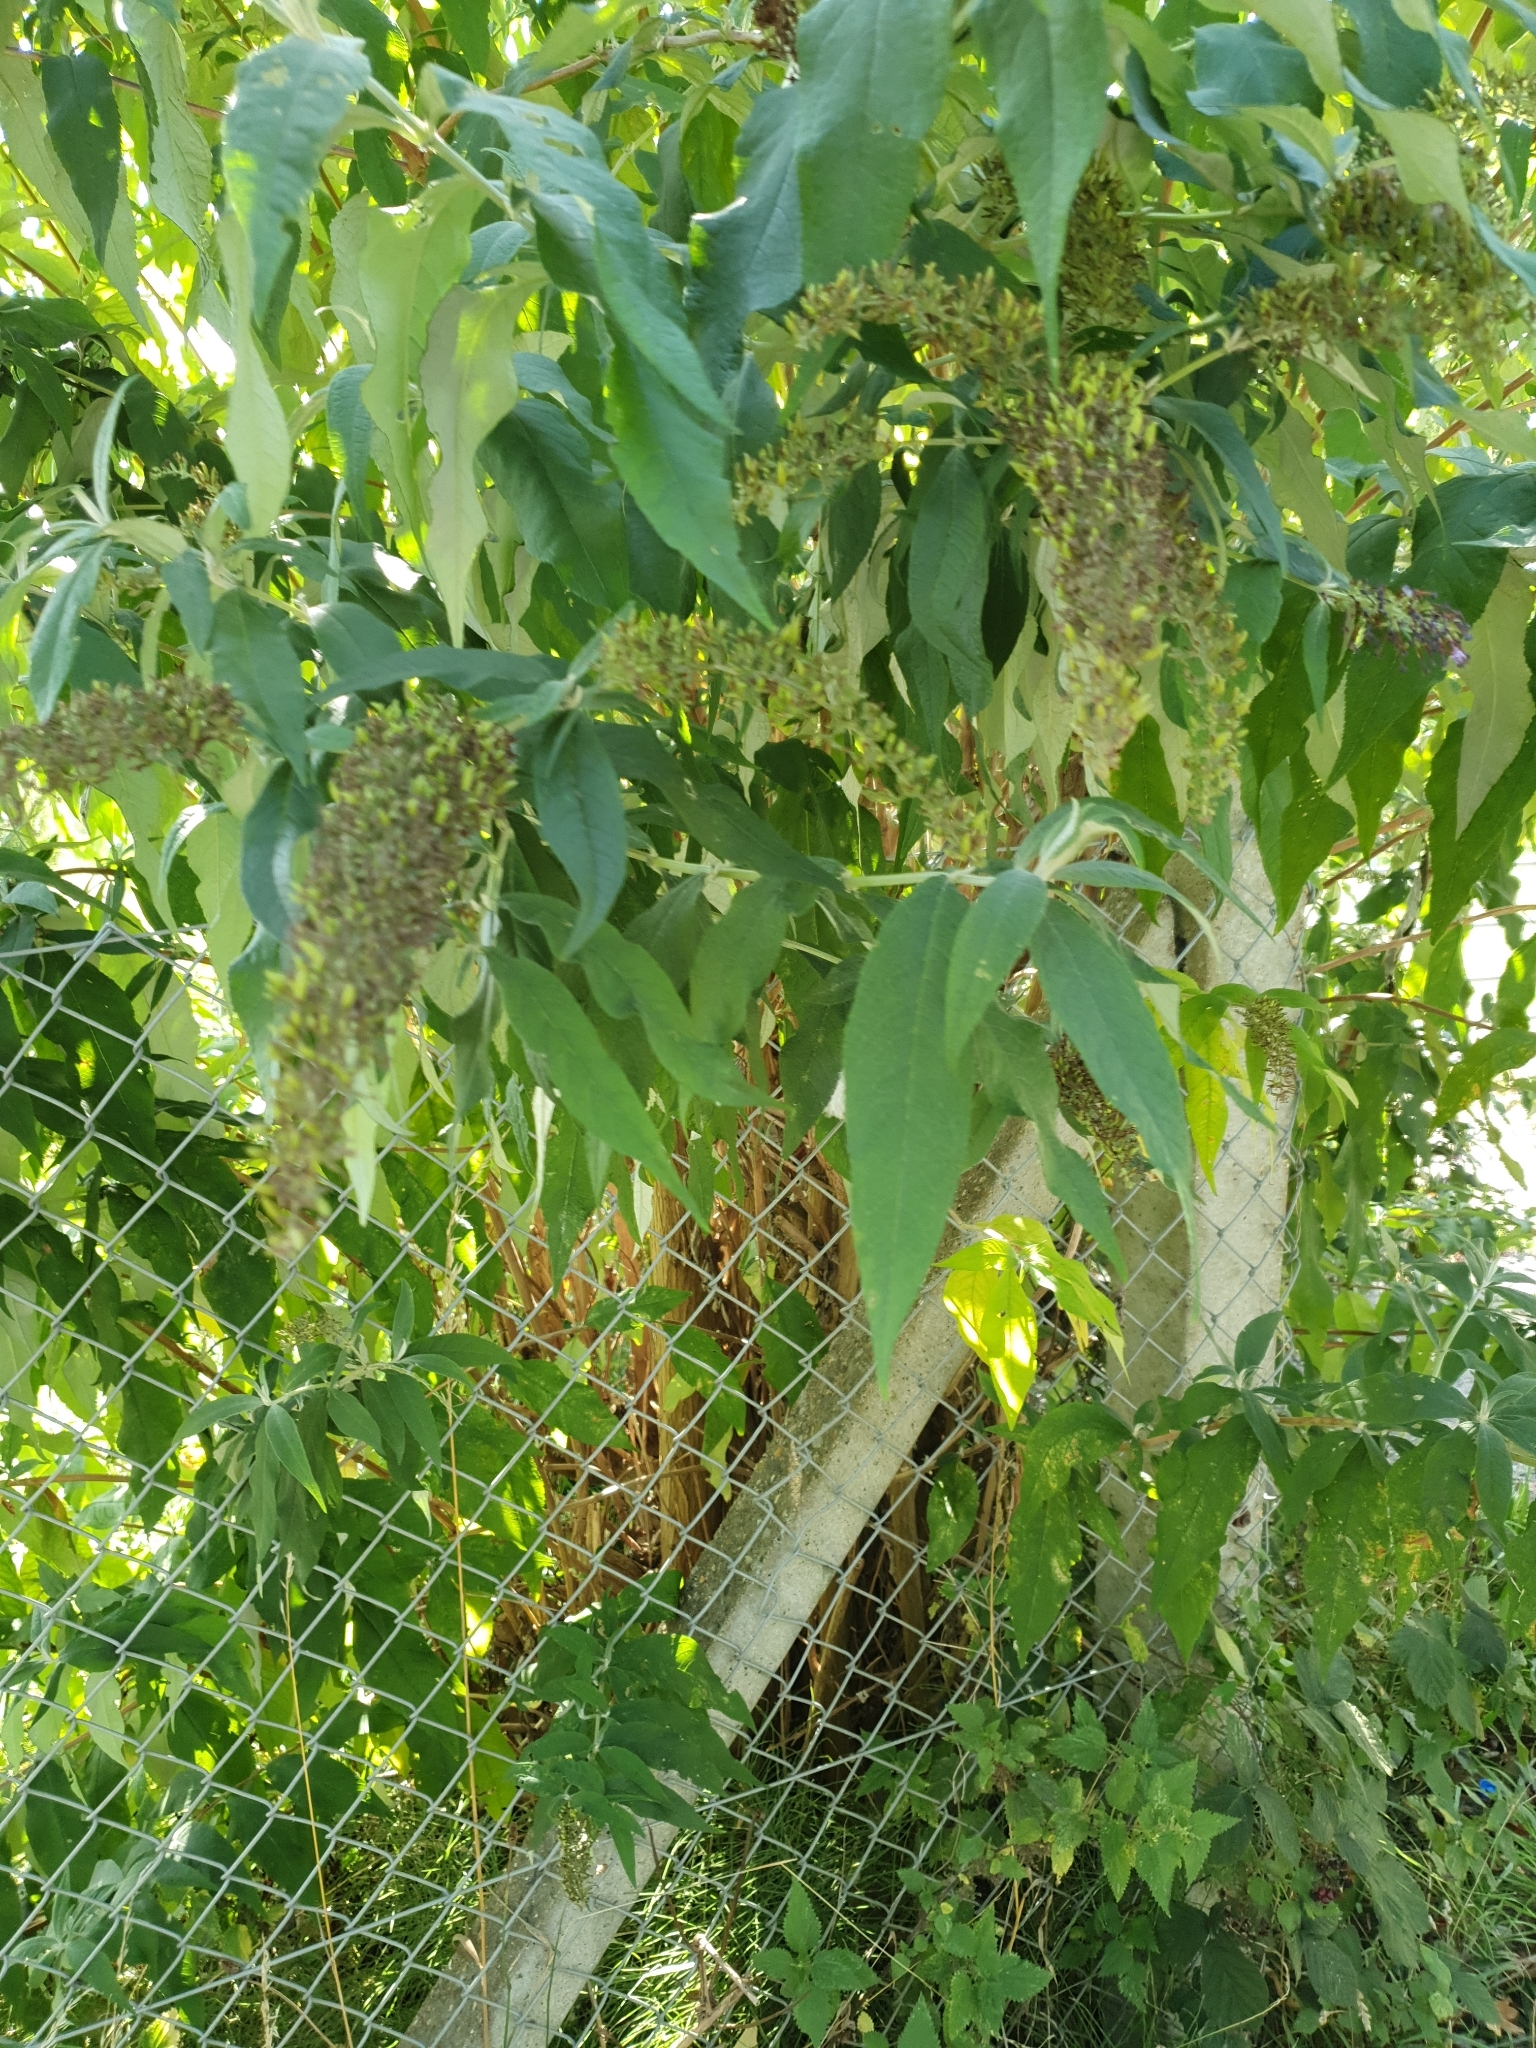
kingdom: Plantae
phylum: Tracheophyta
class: Magnoliopsida
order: Lamiales
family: Scrophulariaceae
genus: Buddleja
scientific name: Buddleja davidii
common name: Butterfly-bush
